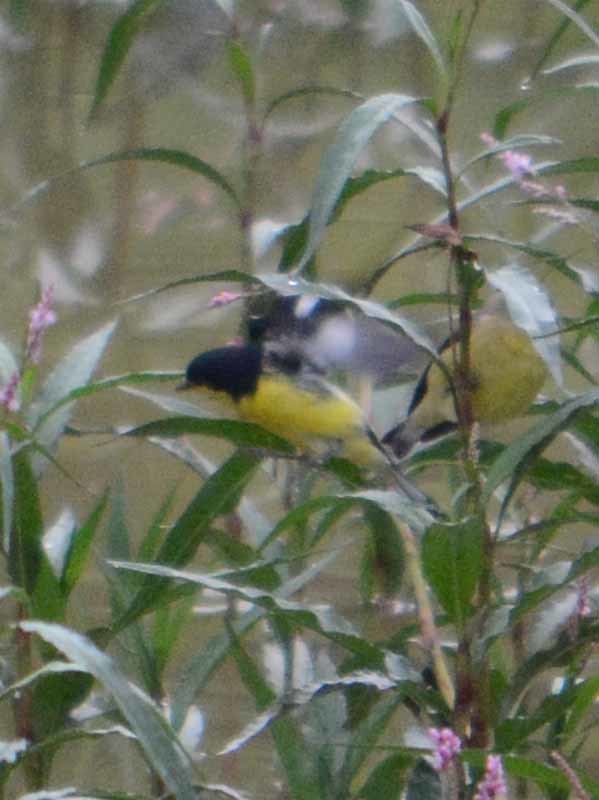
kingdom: Animalia
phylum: Chordata
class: Aves
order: Passeriformes
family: Fringillidae
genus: Spinus
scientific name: Spinus psaltria
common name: Lesser goldfinch
